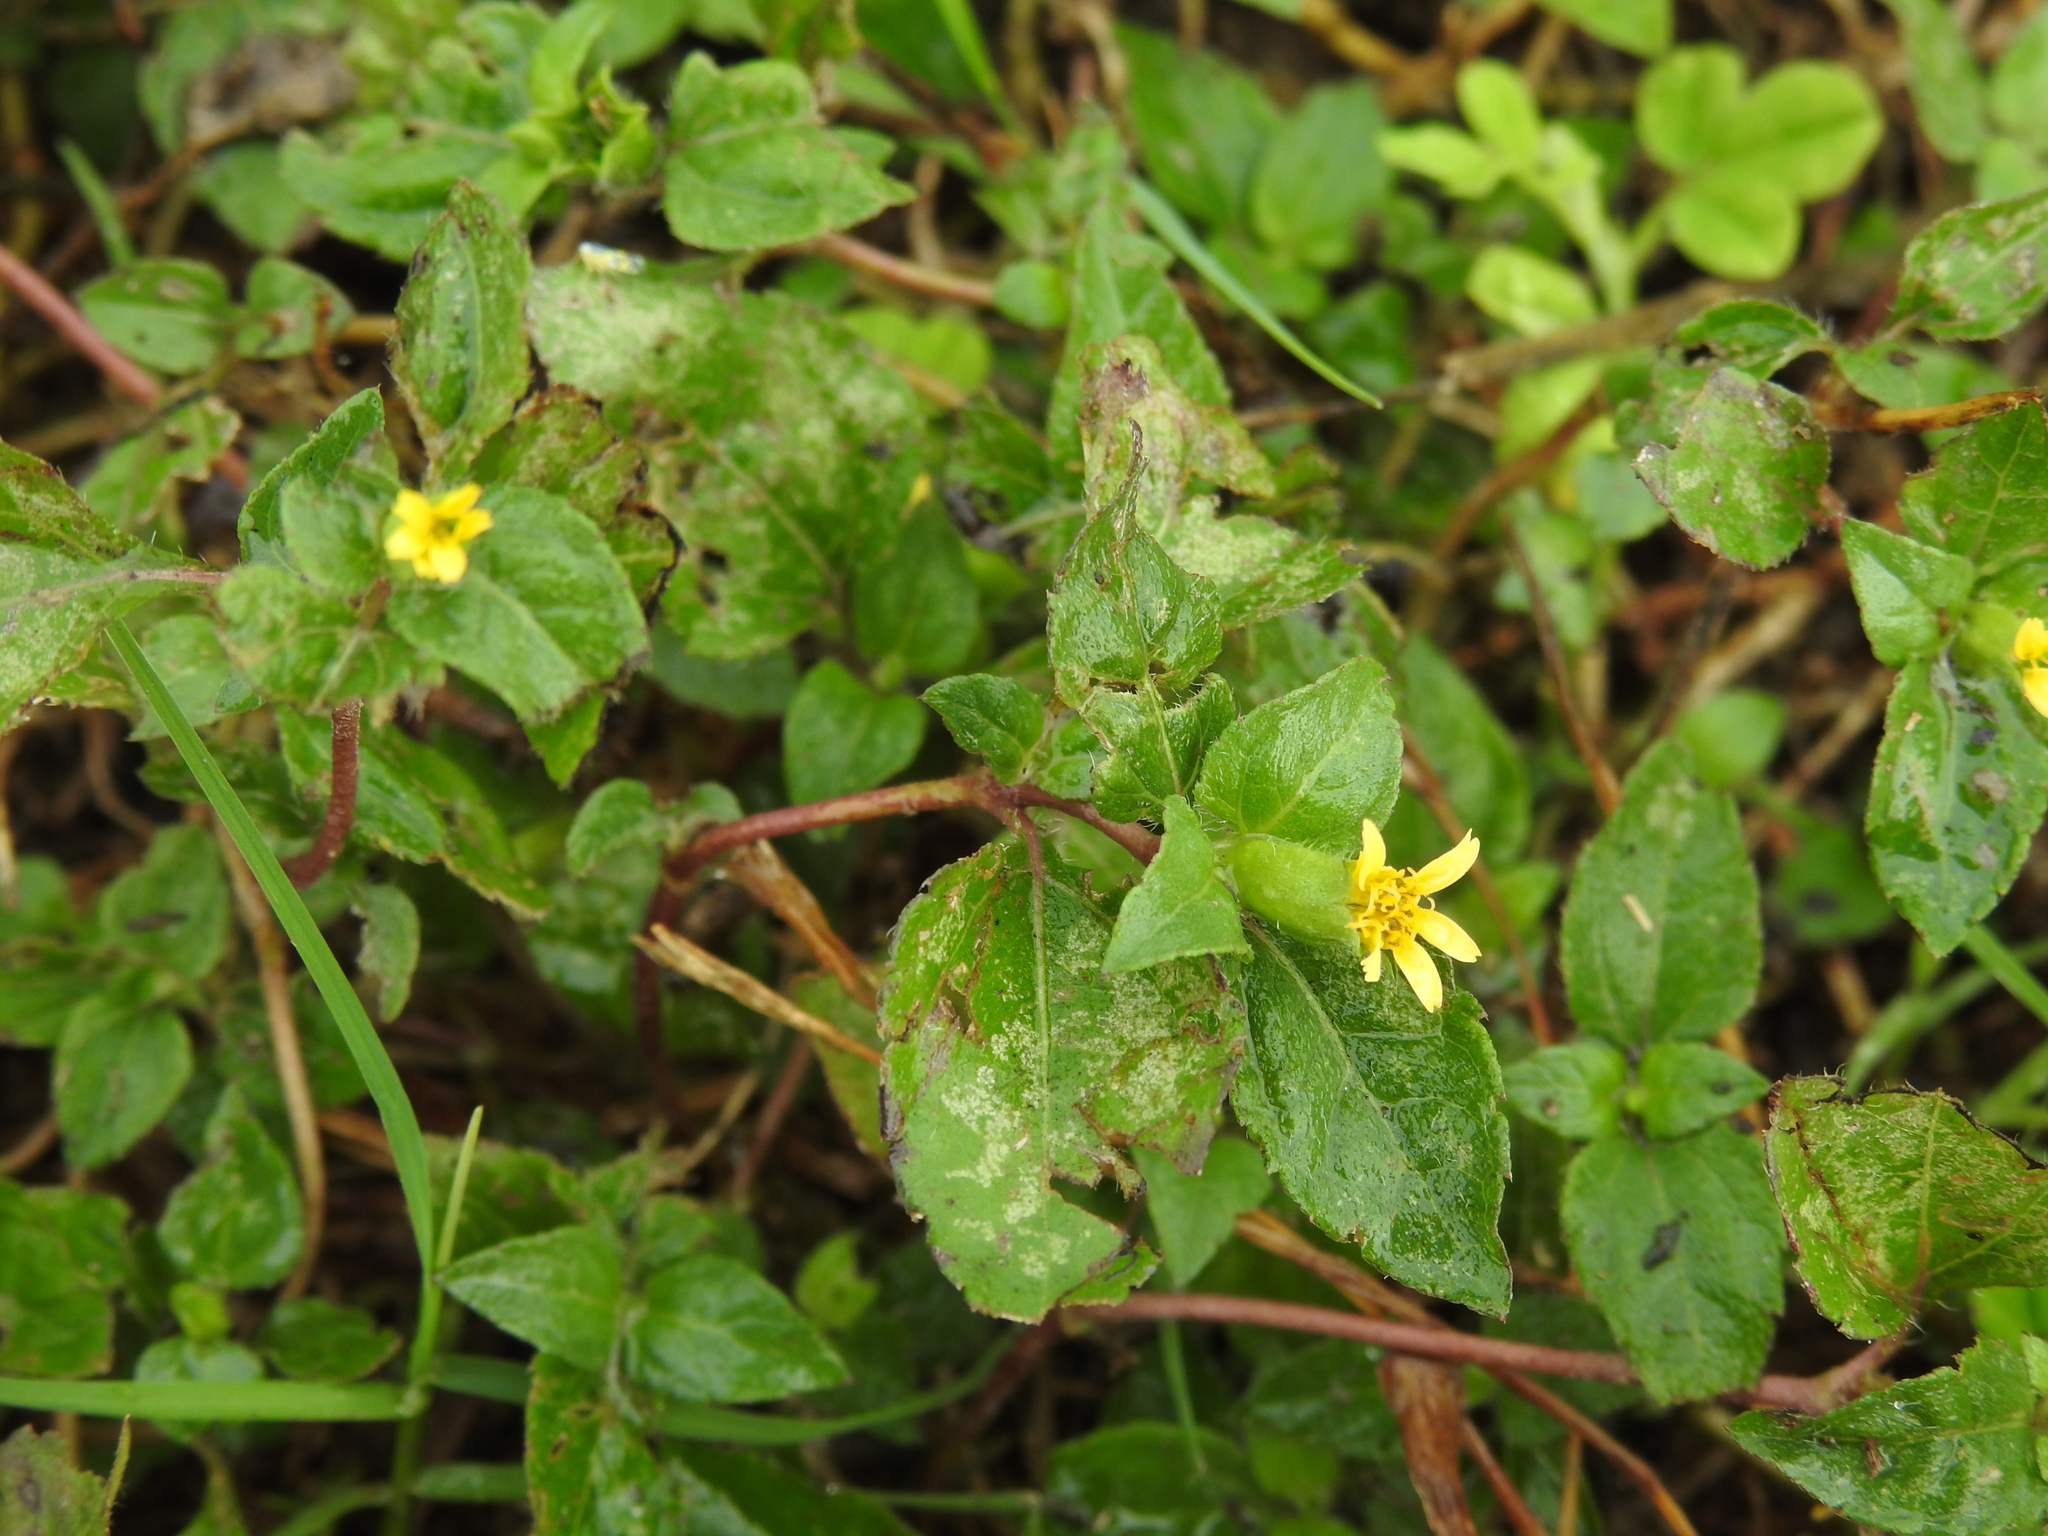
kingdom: Plantae
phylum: Tracheophyta
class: Magnoliopsida
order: Asterales
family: Asteraceae
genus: Calyptocarpus
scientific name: Calyptocarpus vialis
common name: Straggler daisy
